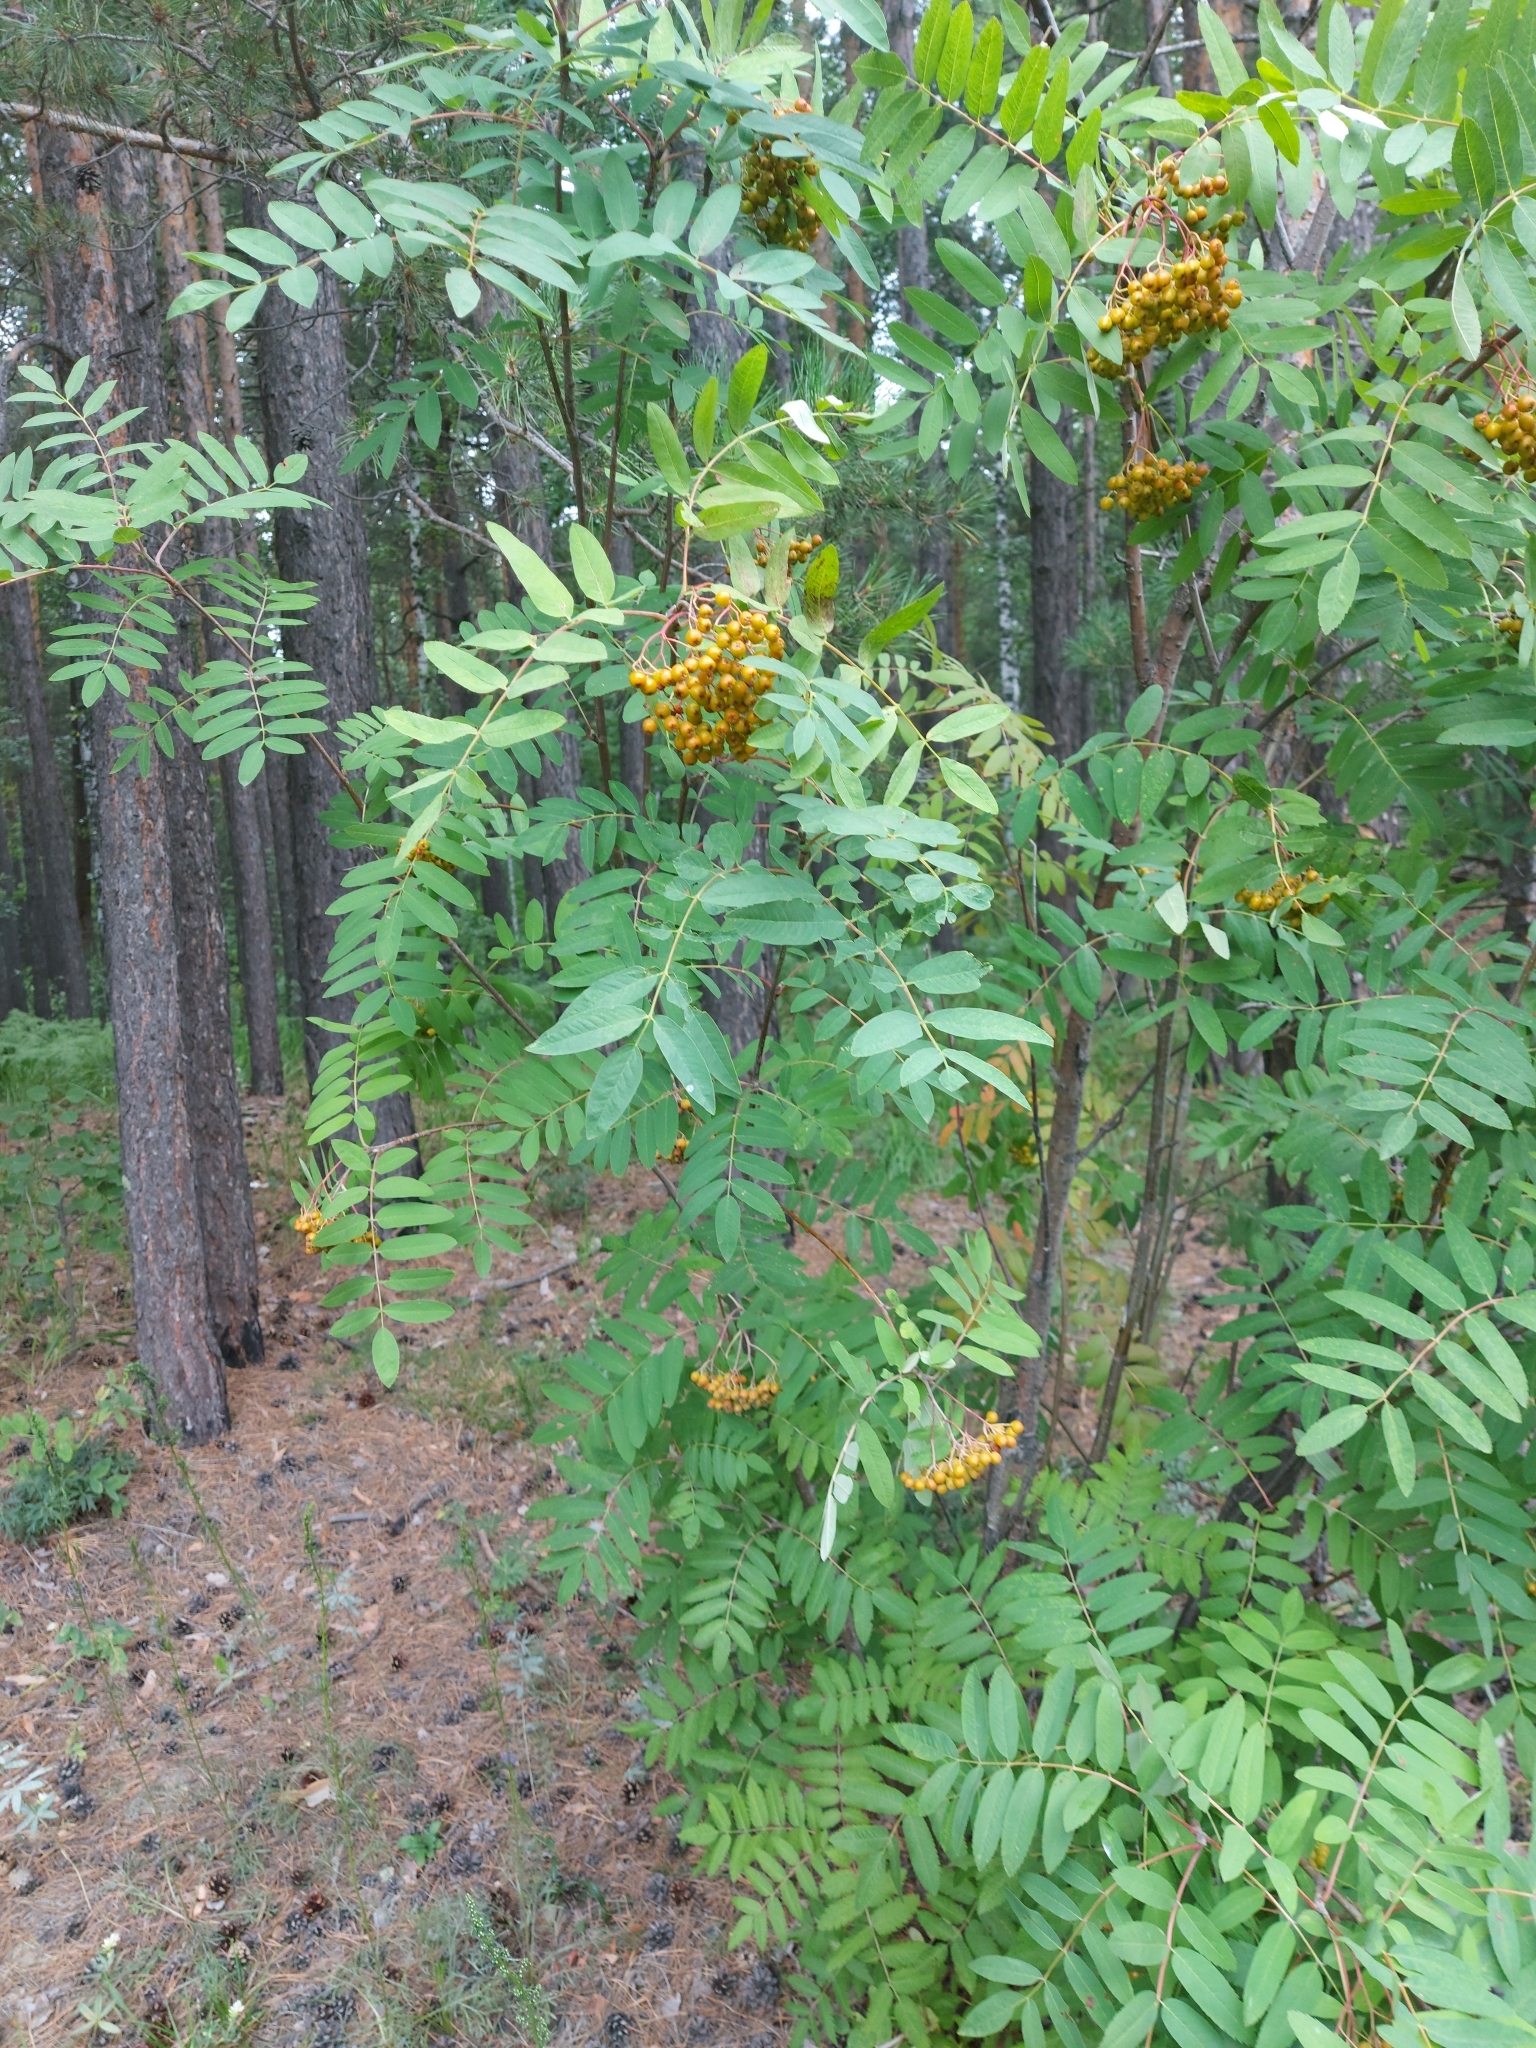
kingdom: Plantae
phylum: Tracheophyta
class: Magnoliopsida
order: Rosales
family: Rosaceae
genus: Sorbus
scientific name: Sorbus aucuparia
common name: Rowan
